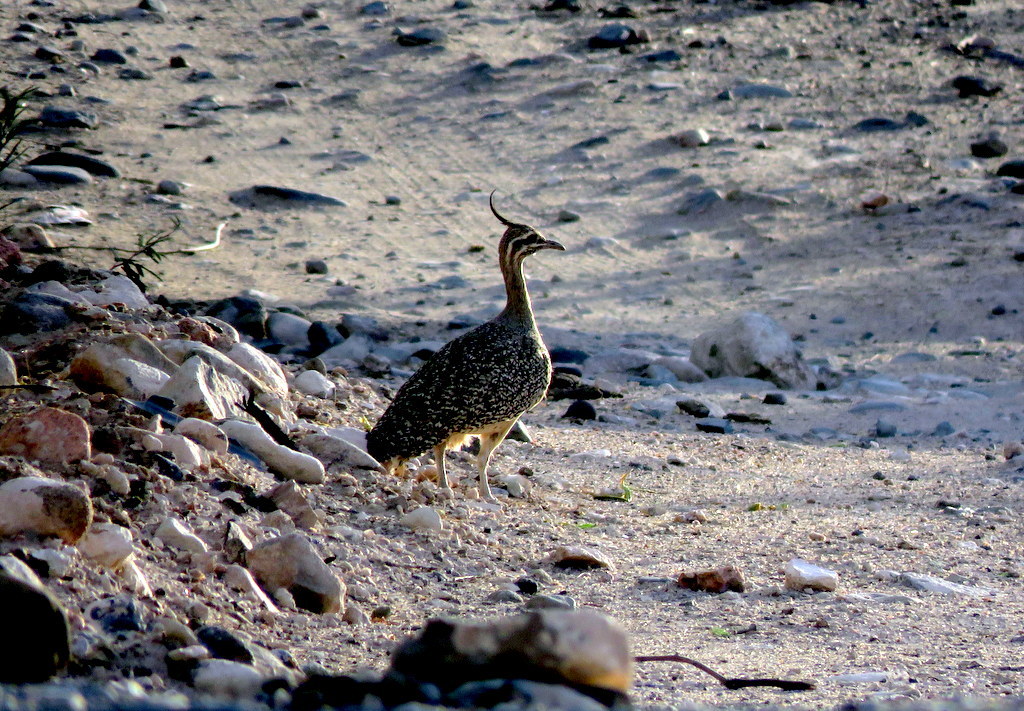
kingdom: Animalia
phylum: Chordata
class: Aves
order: Tinamiformes
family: Tinamidae
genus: Eudromia
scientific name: Eudromia elegans
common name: Elegant crested tinamou
